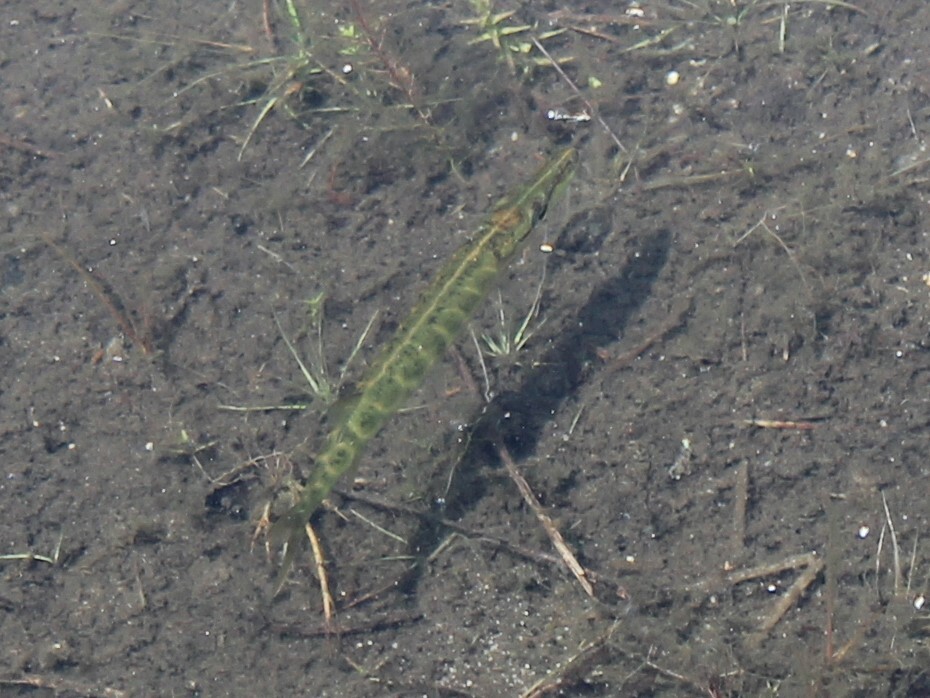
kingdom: Animalia
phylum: Chordata
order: Esociformes
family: Esocidae
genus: Esox
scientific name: Esox niger
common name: Chain pickerel
